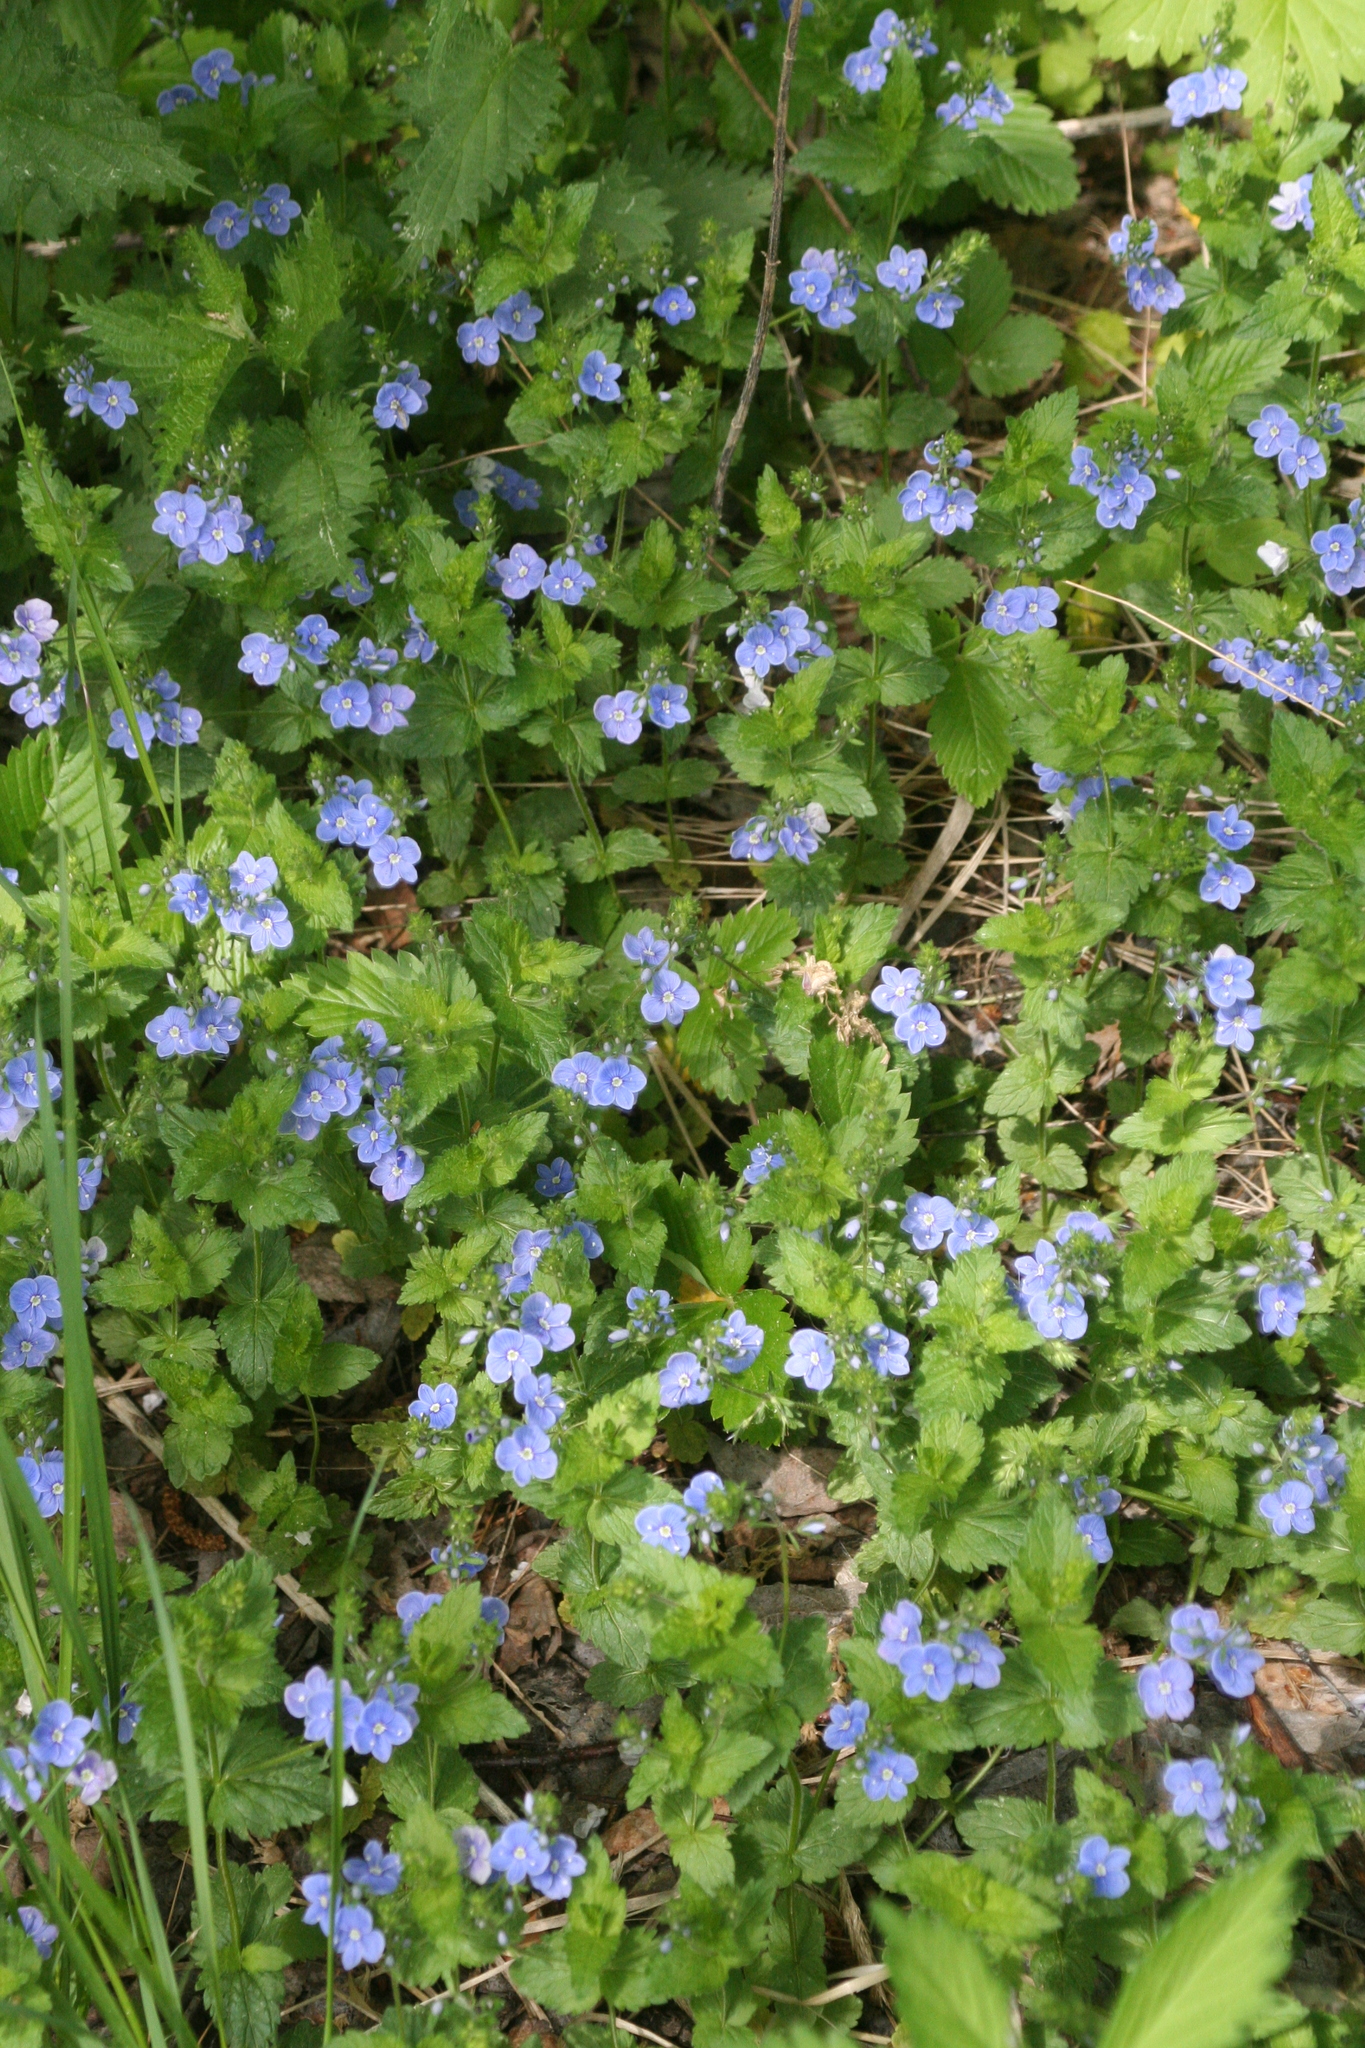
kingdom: Plantae
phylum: Tracheophyta
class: Magnoliopsida
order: Lamiales
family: Plantaginaceae
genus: Veronica
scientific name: Veronica chamaedrys
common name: Germander speedwell
